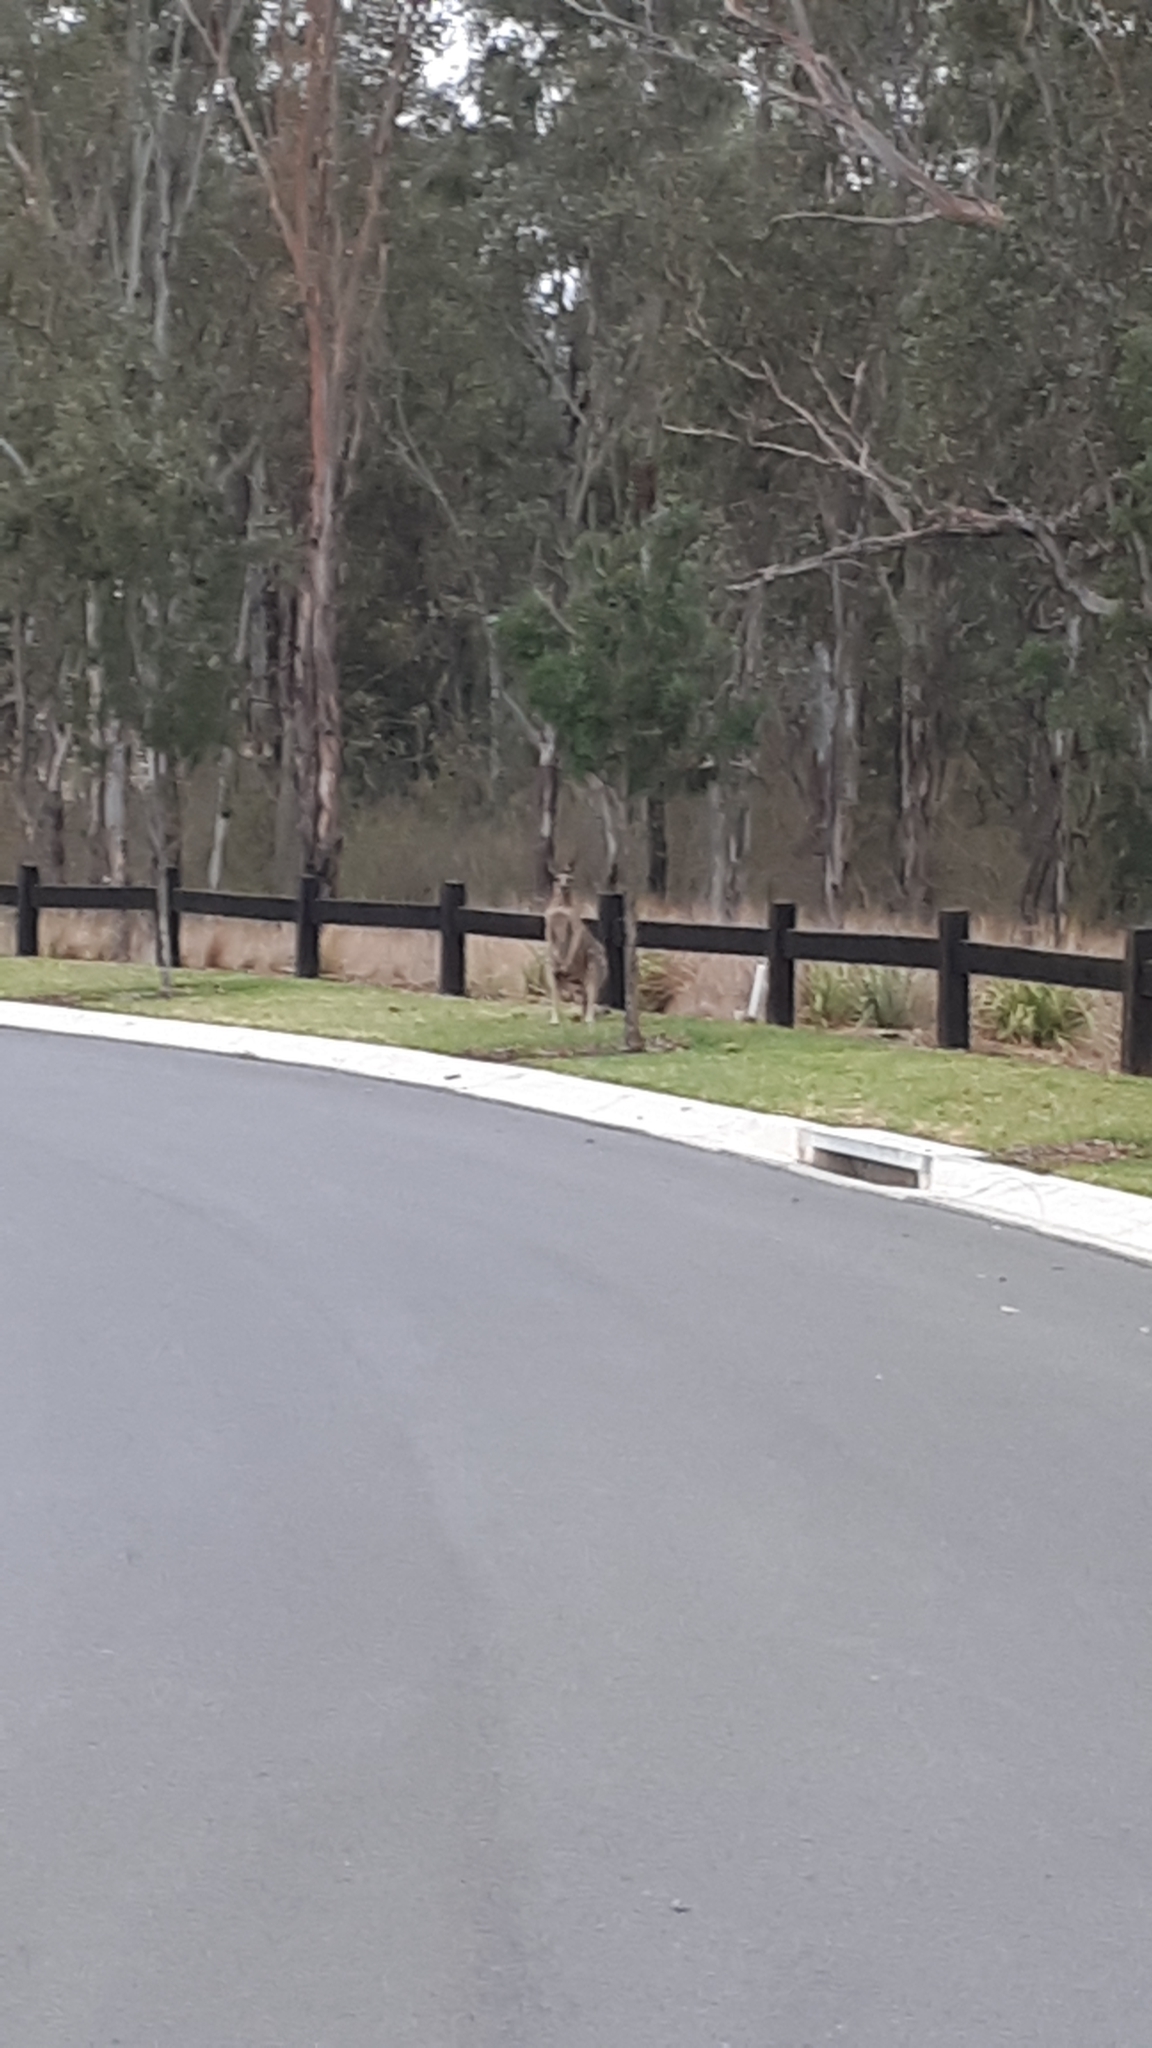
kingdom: Animalia
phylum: Chordata
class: Mammalia
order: Diprotodontia
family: Macropodidae
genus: Macropus
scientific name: Macropus giganteus
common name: Eastern grey kangaroo
